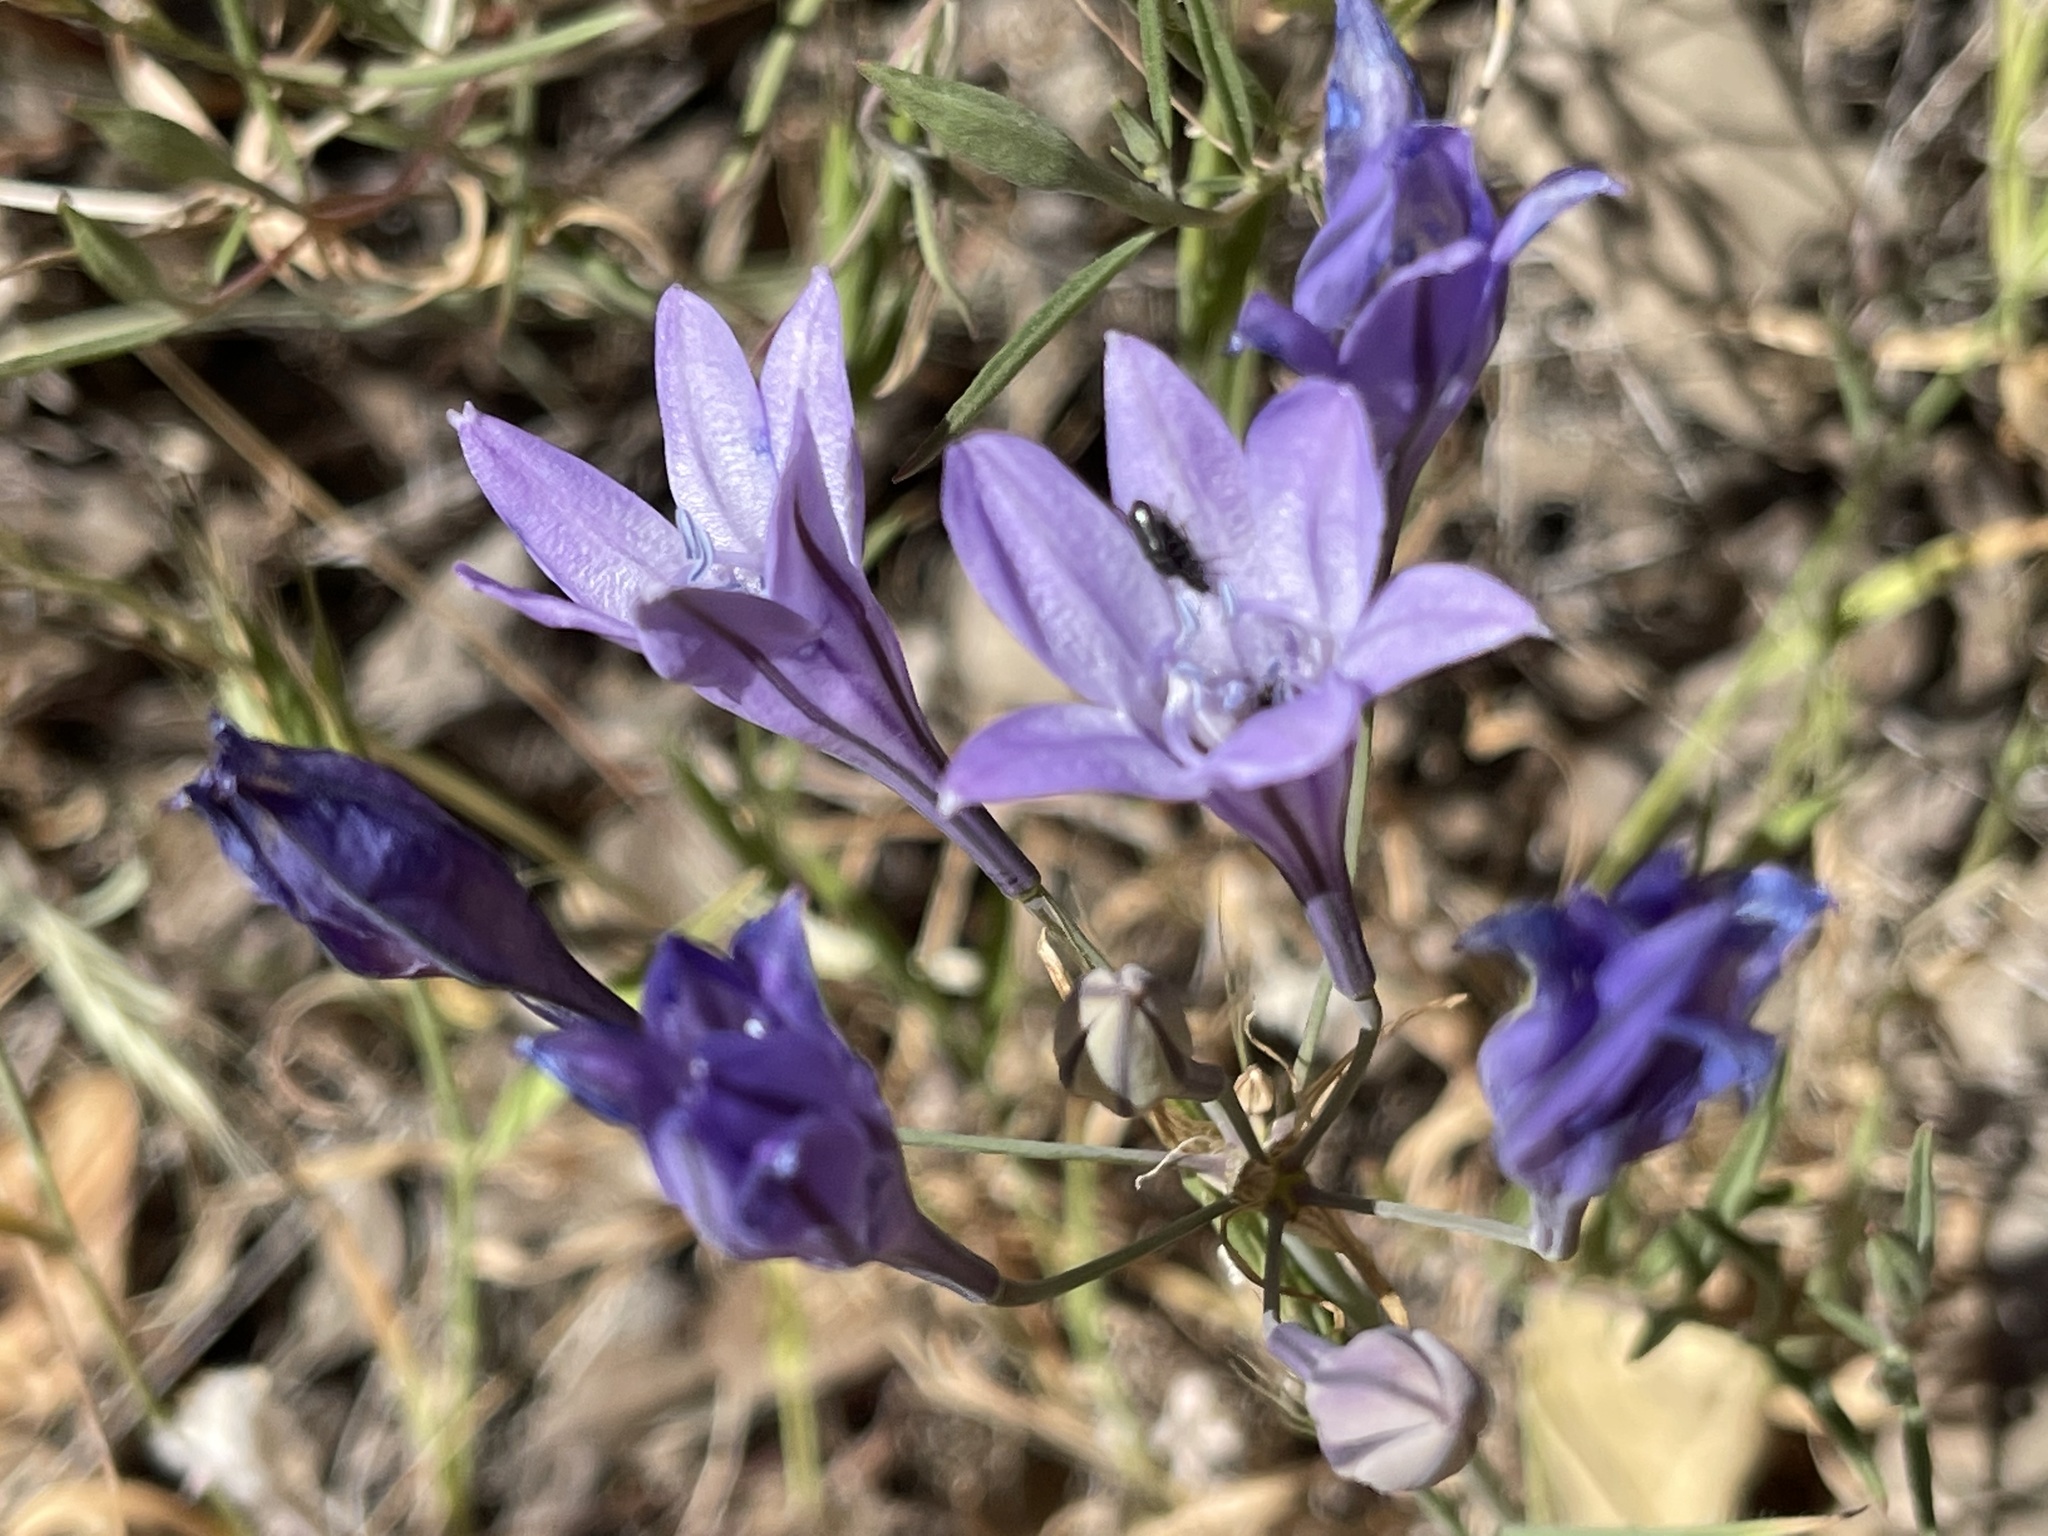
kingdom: Plantae
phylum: Tracheophyta
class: Liliopsida
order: Asparagales
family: Asparagaceae
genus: Triteleia
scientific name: Triteleia laxa
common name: Triplet-lily
